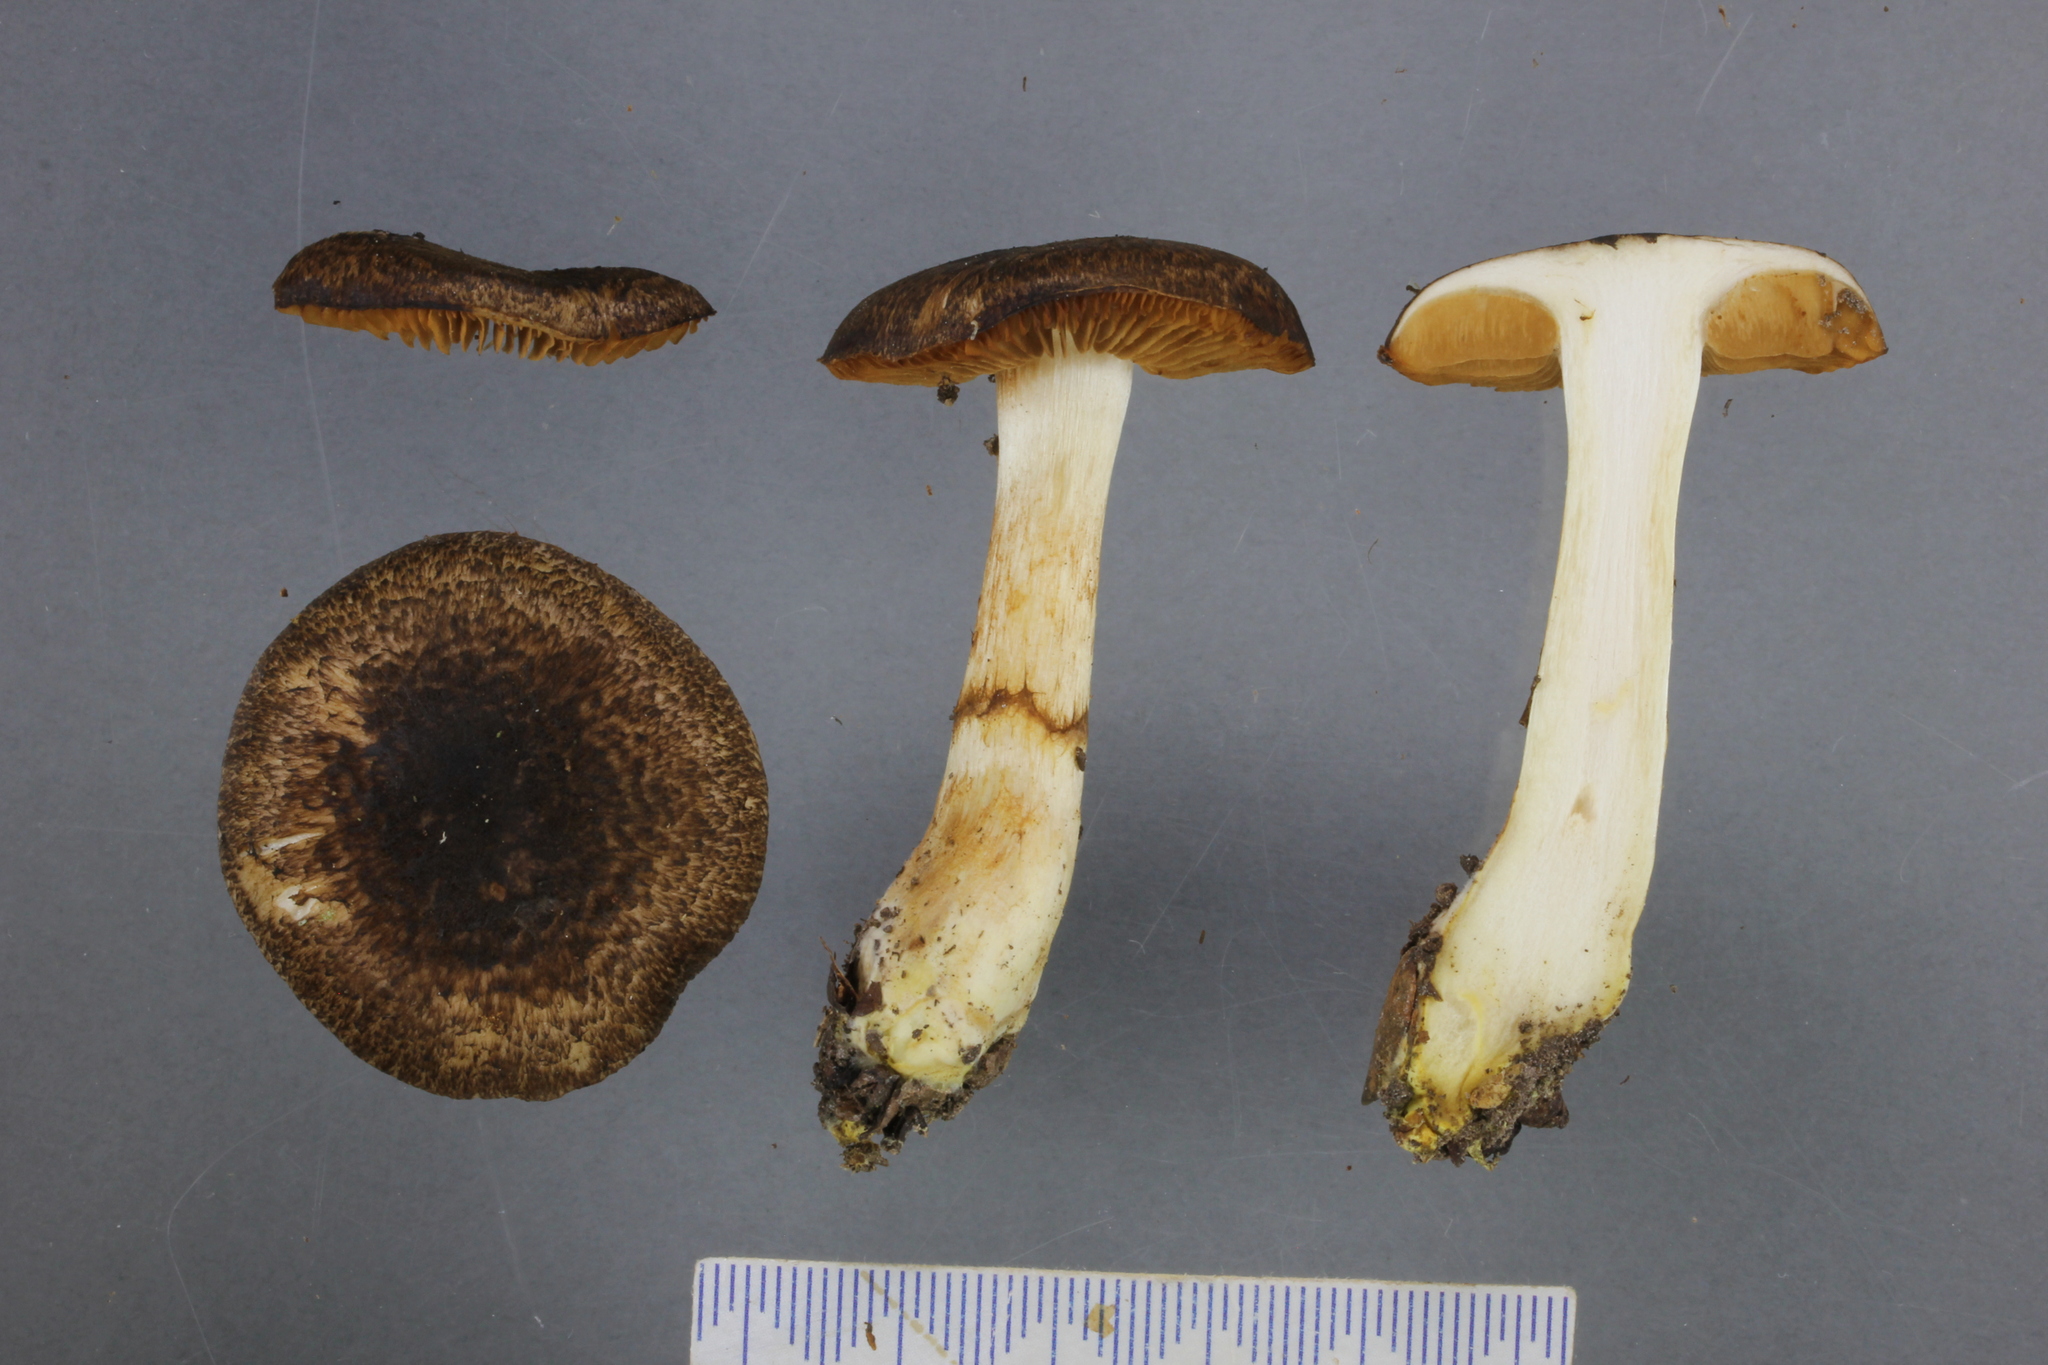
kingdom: Fungi
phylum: Basidiomycota
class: Agaricomycetes
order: Agaricales
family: Cortinariaceae
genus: Cortinarius
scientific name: Cortinarius ophryx
